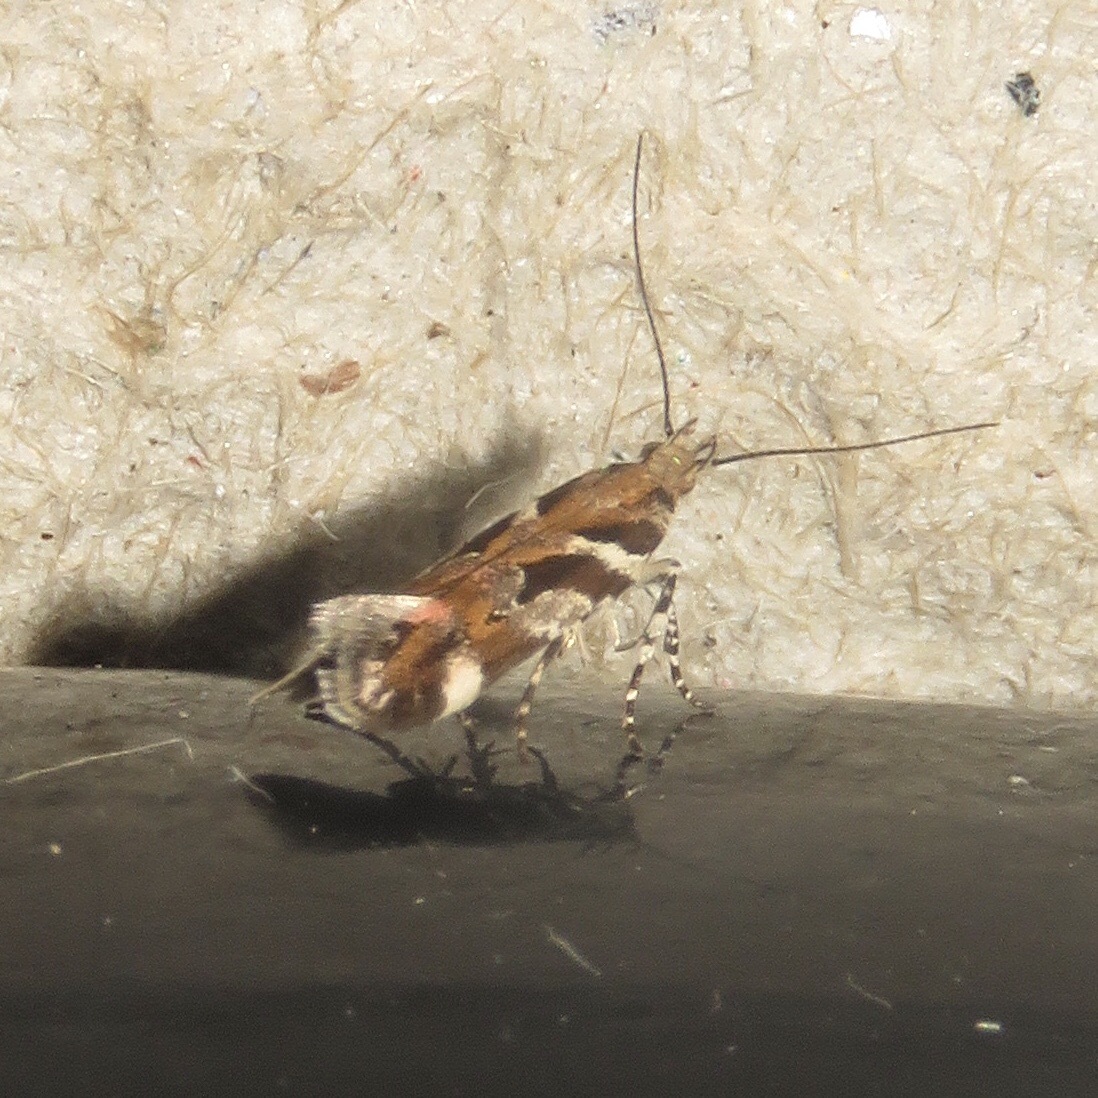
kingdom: Animalia
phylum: Arthropoda
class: Insecta
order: Lepidoptera
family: Gelechiidae
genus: Aristotelia
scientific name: Aristotelia roseosuffusella
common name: Pink-washed aristotelia moth
